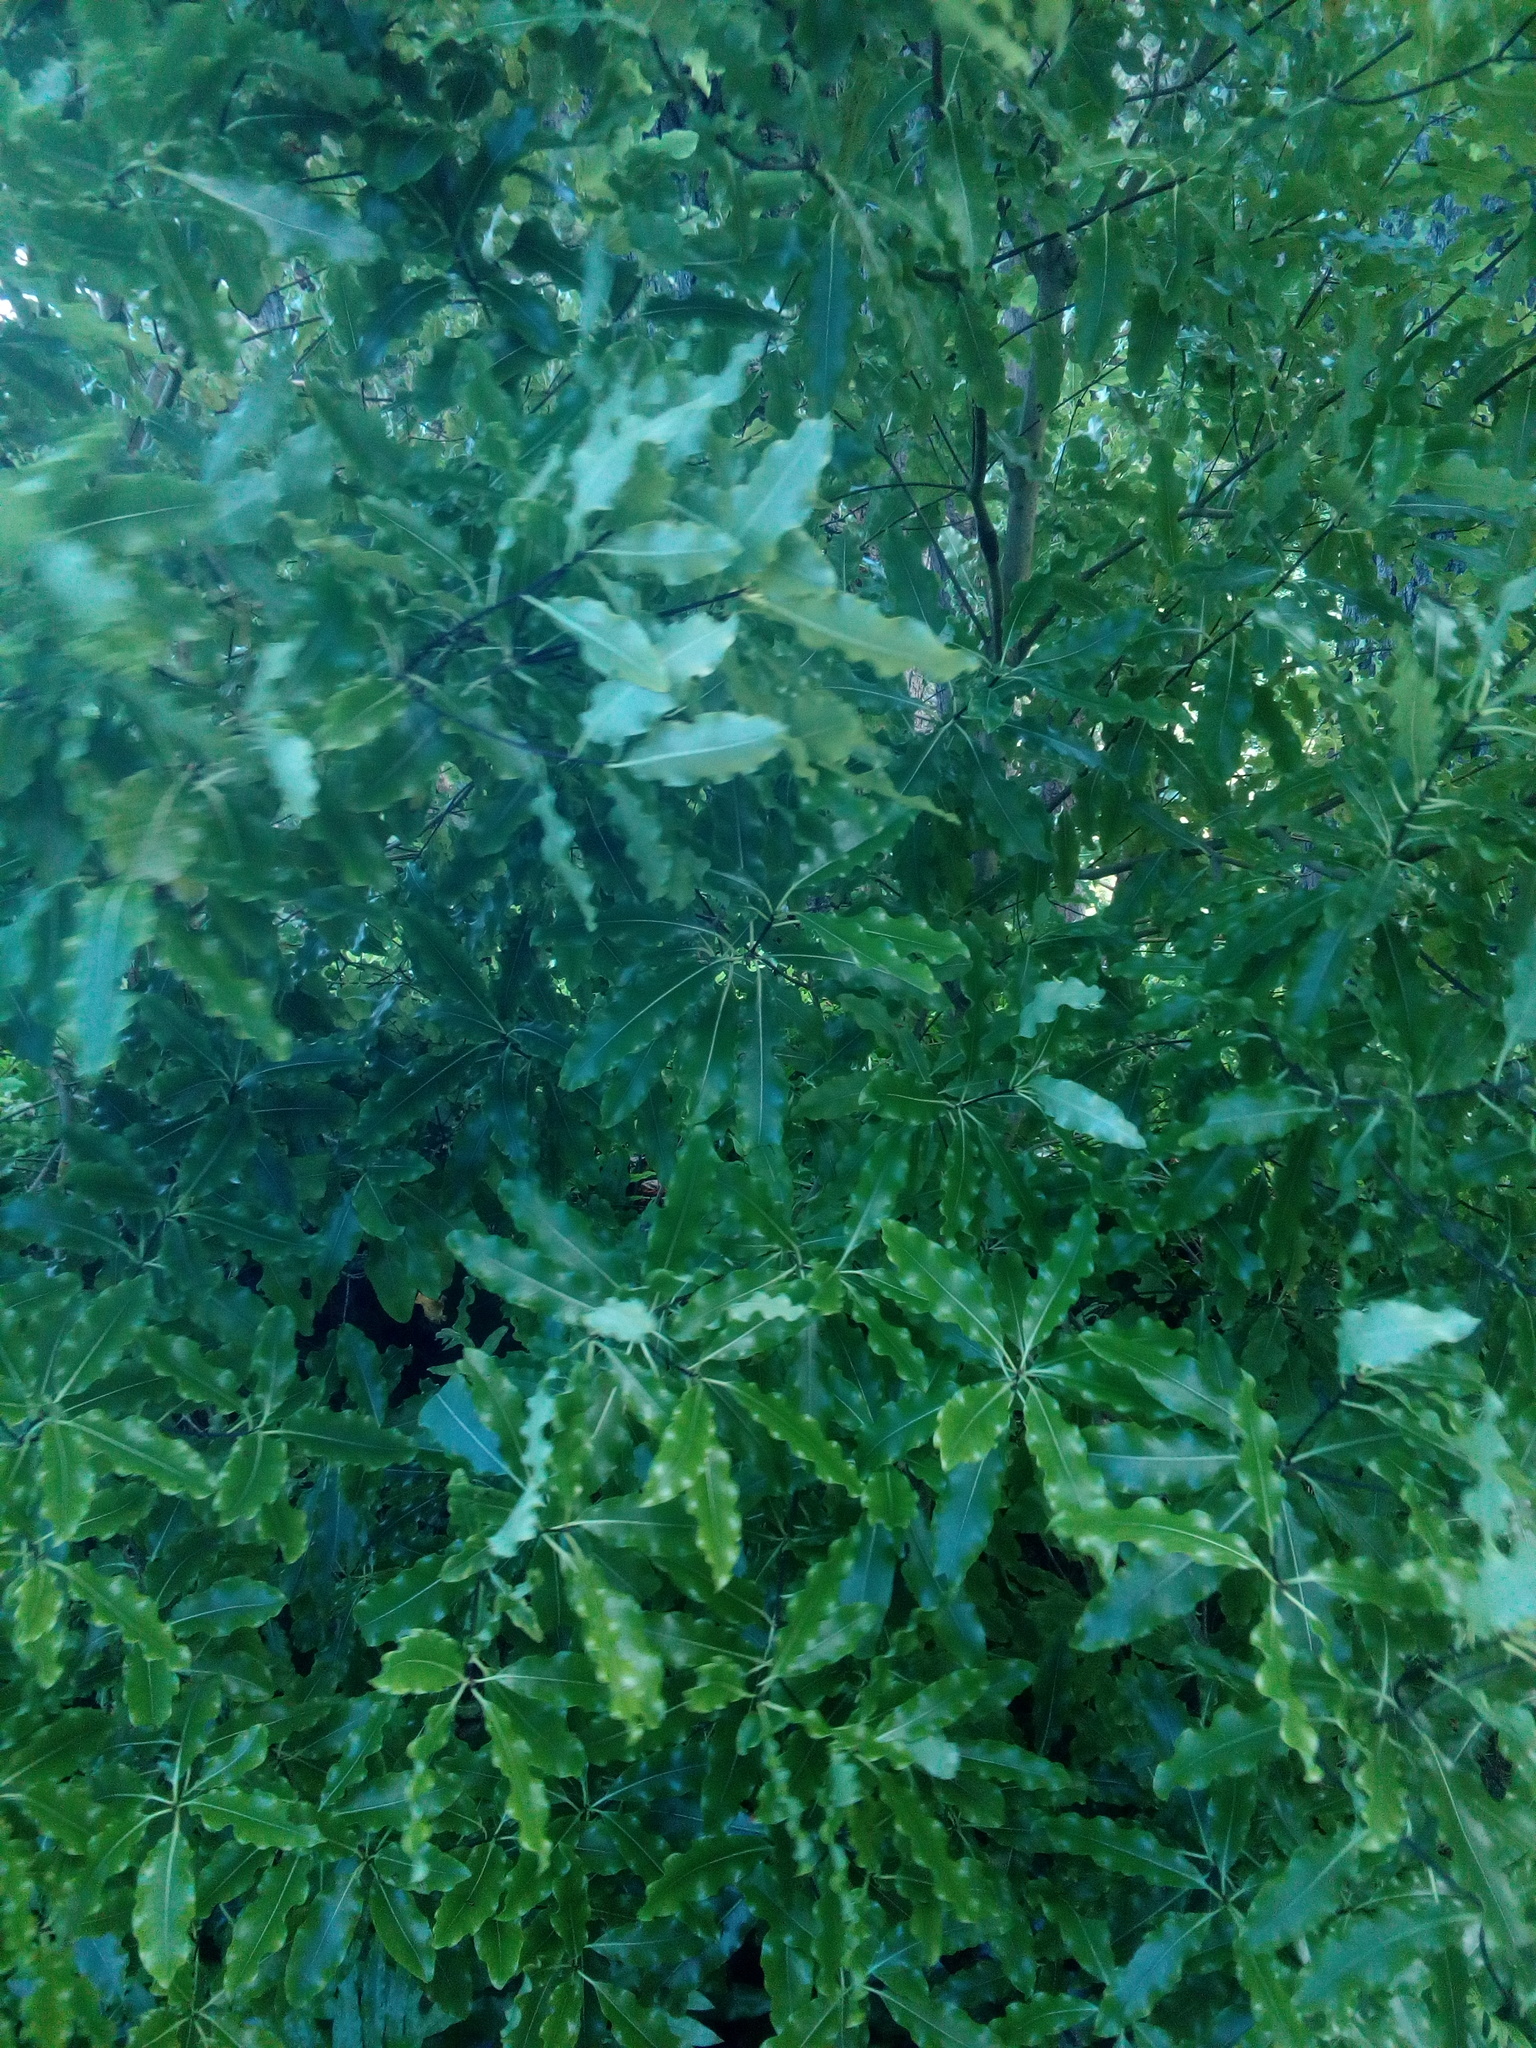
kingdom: Plantae
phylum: Tracheophyta
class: Magnoliopsida
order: Apiales
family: Pittosporaceae
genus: Pittosporum
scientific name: Pittosporum eugenioides
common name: Lemonwood
